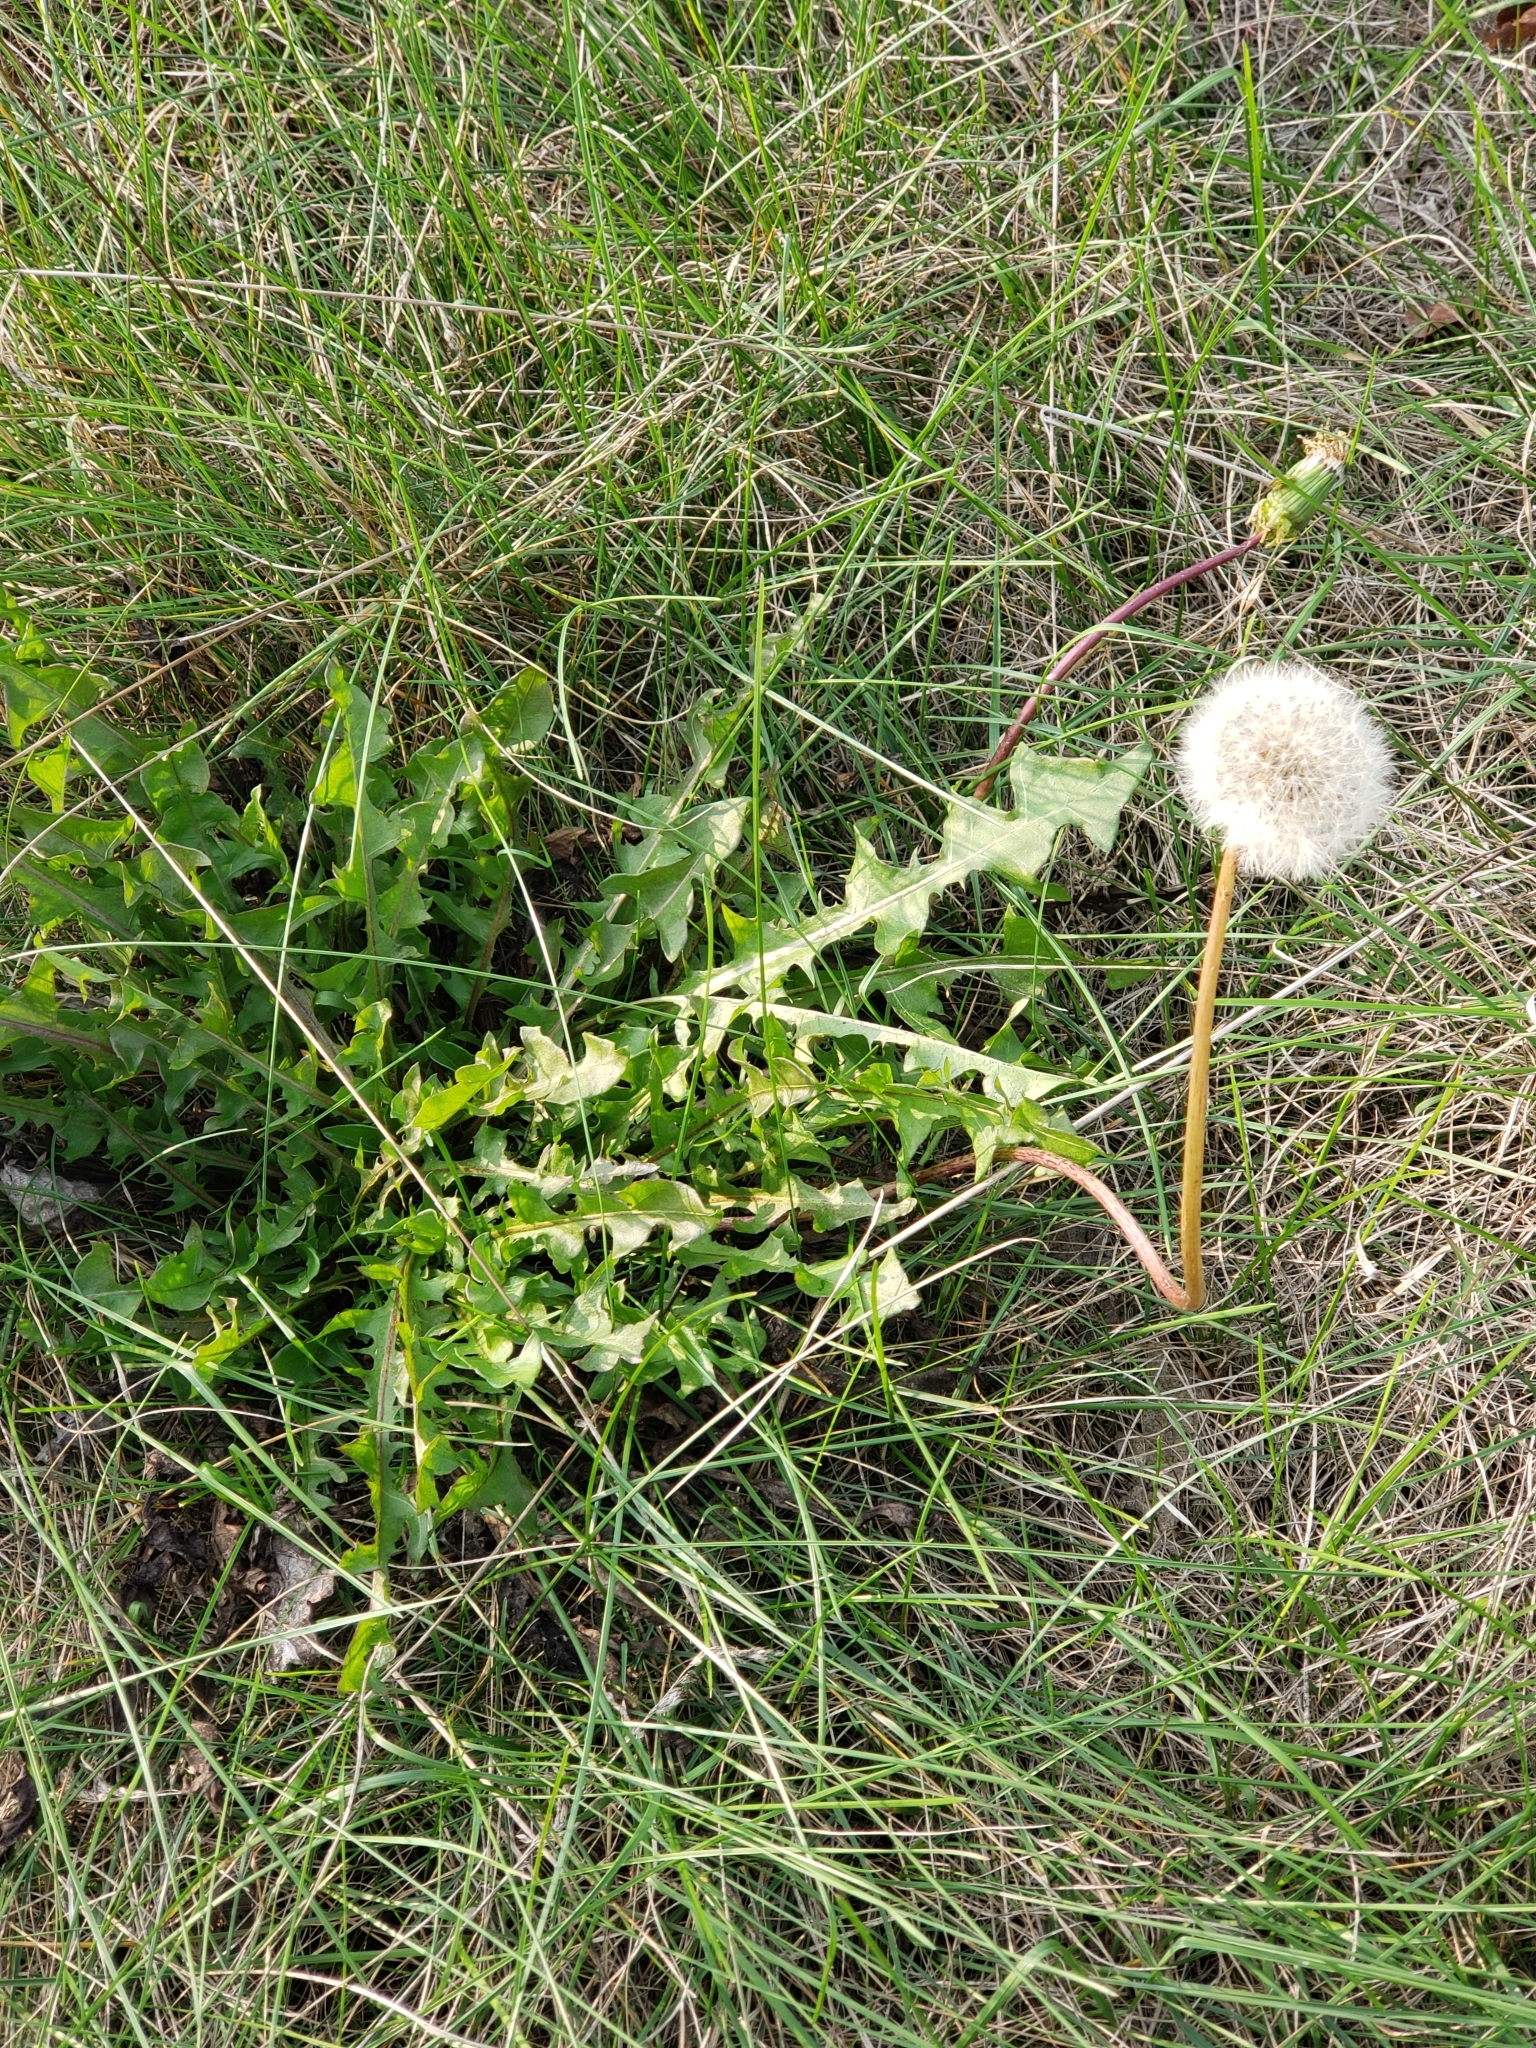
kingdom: Plantae
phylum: Tracheophyta
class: Magnoliopsida
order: Asterales
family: Asteraceae
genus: Taraxacum
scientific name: Taraxacum officinale
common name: Common dandelion
